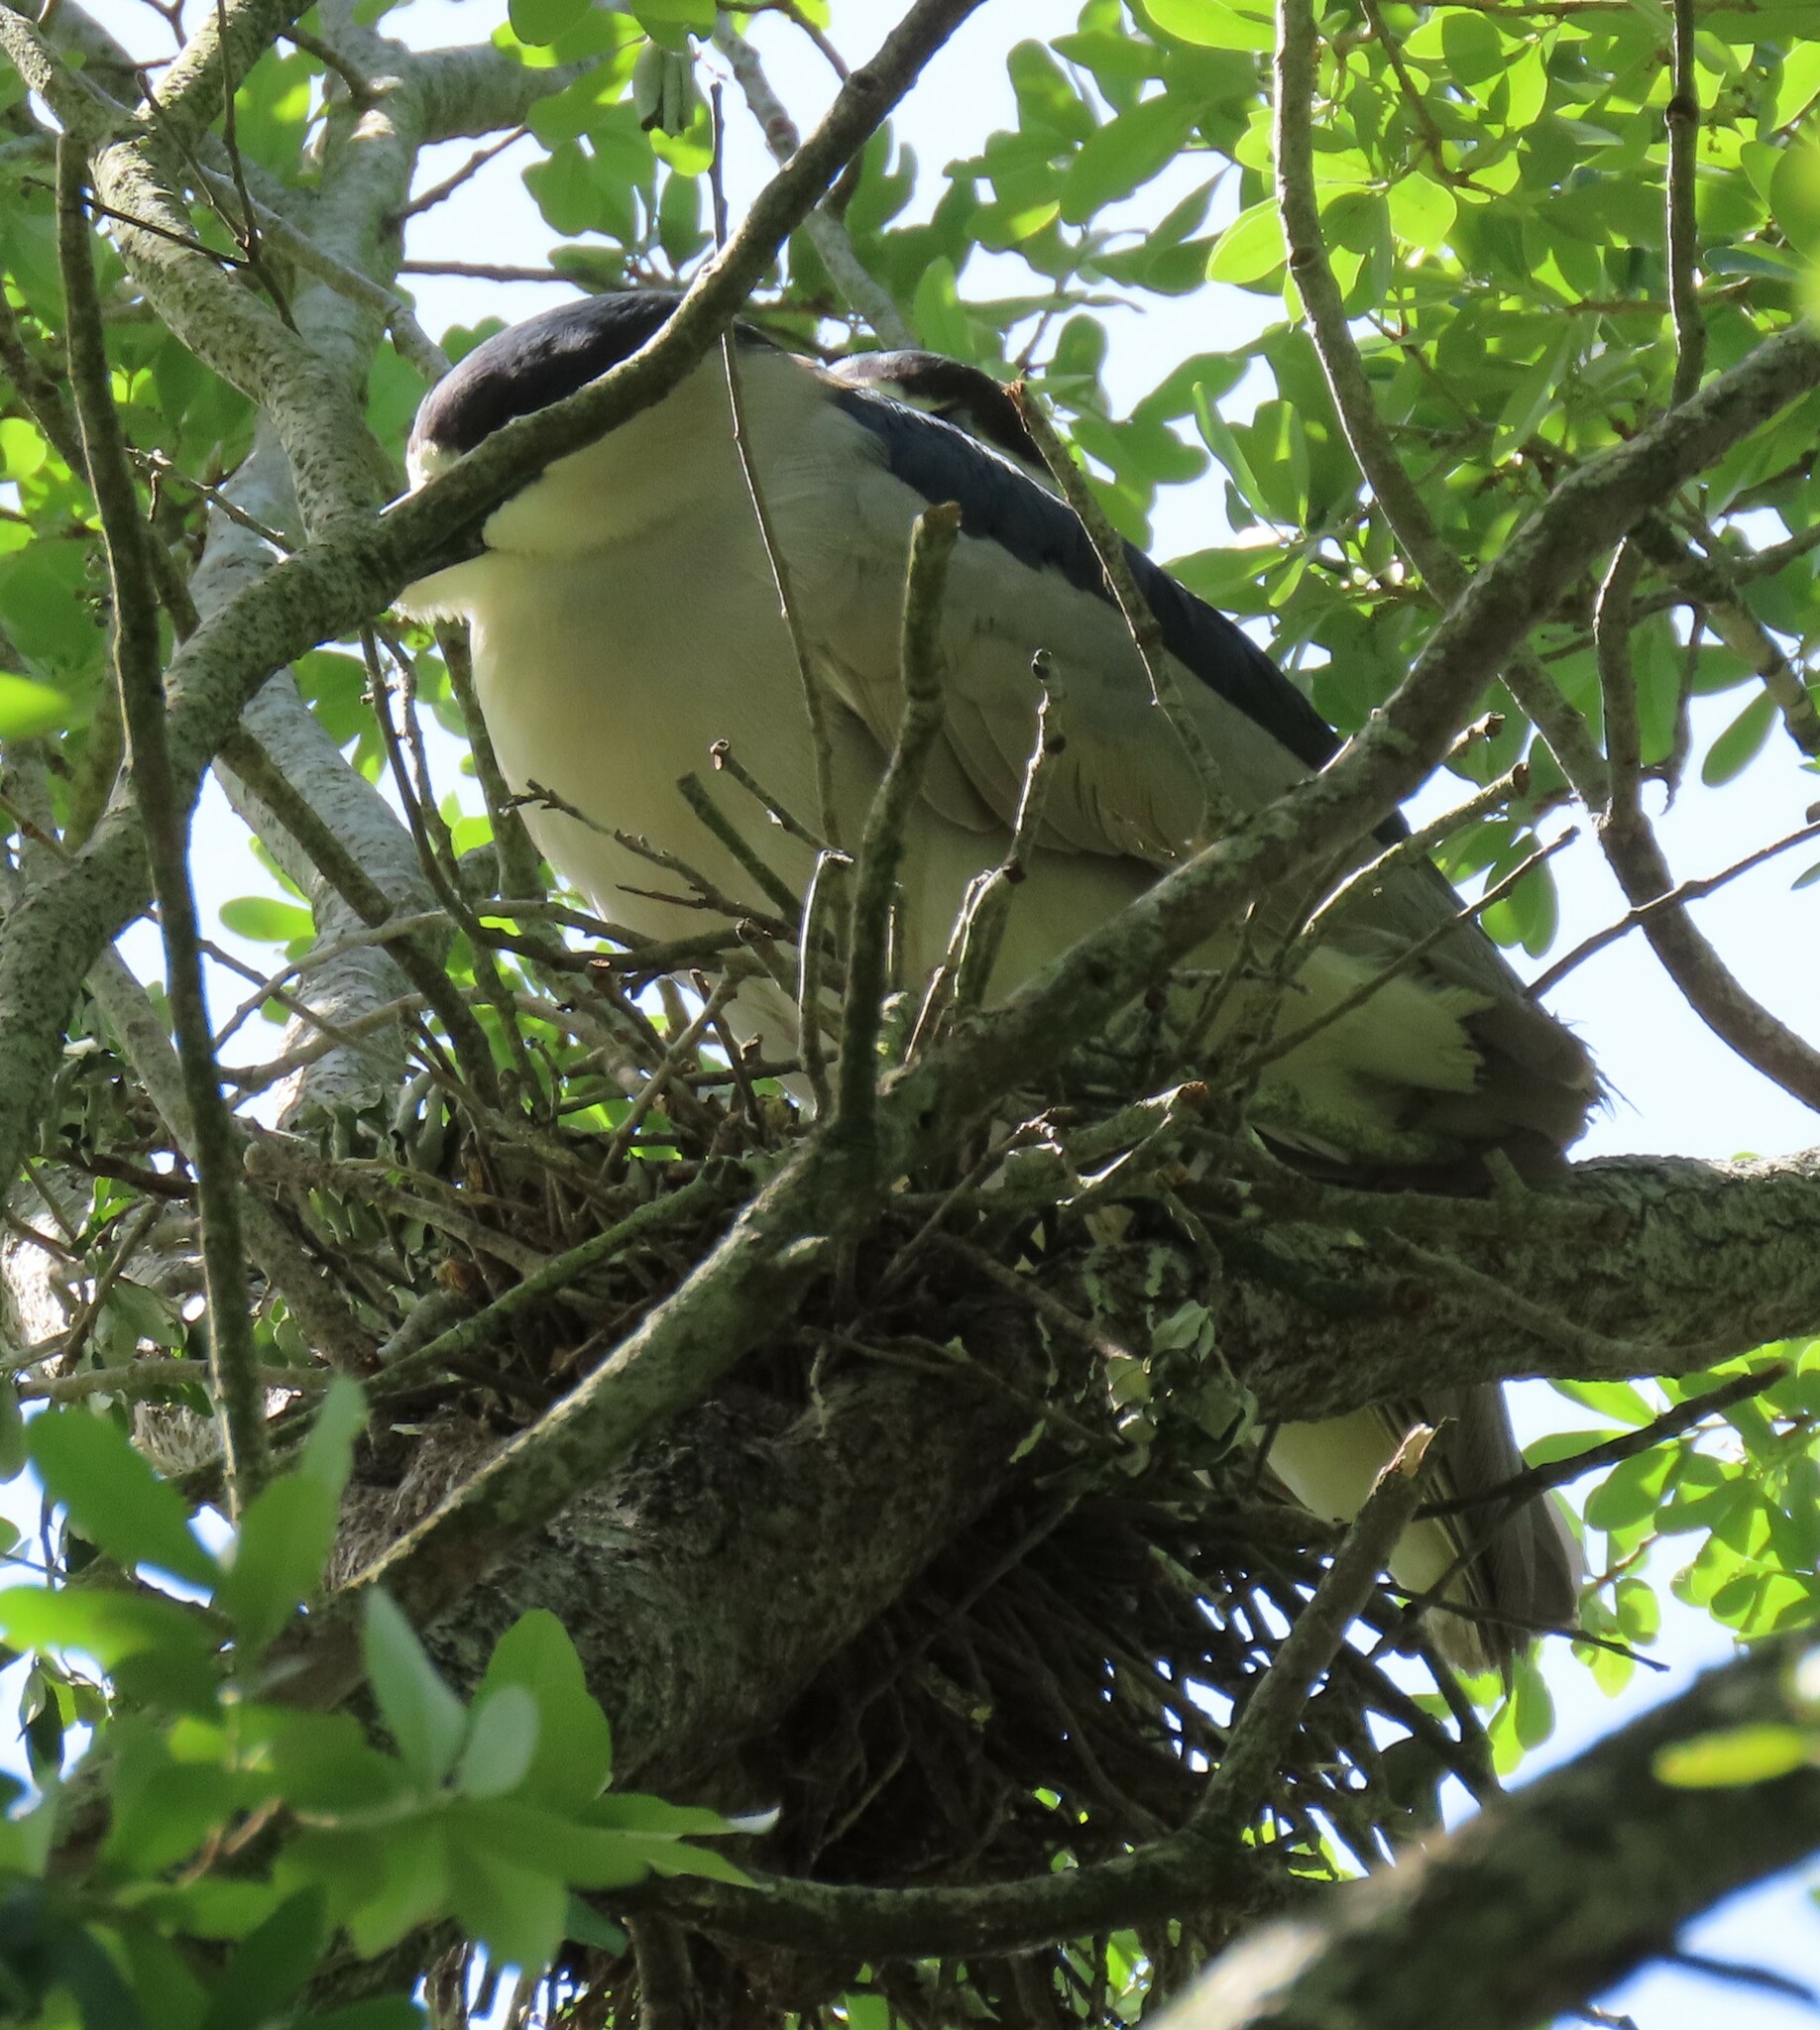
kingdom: Animalia
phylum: Chordata
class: Aves
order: Pelecaniformes
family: Ardeidae
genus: Nycticorax
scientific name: Nycticorax nycticorax
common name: Black-crowned night heron
